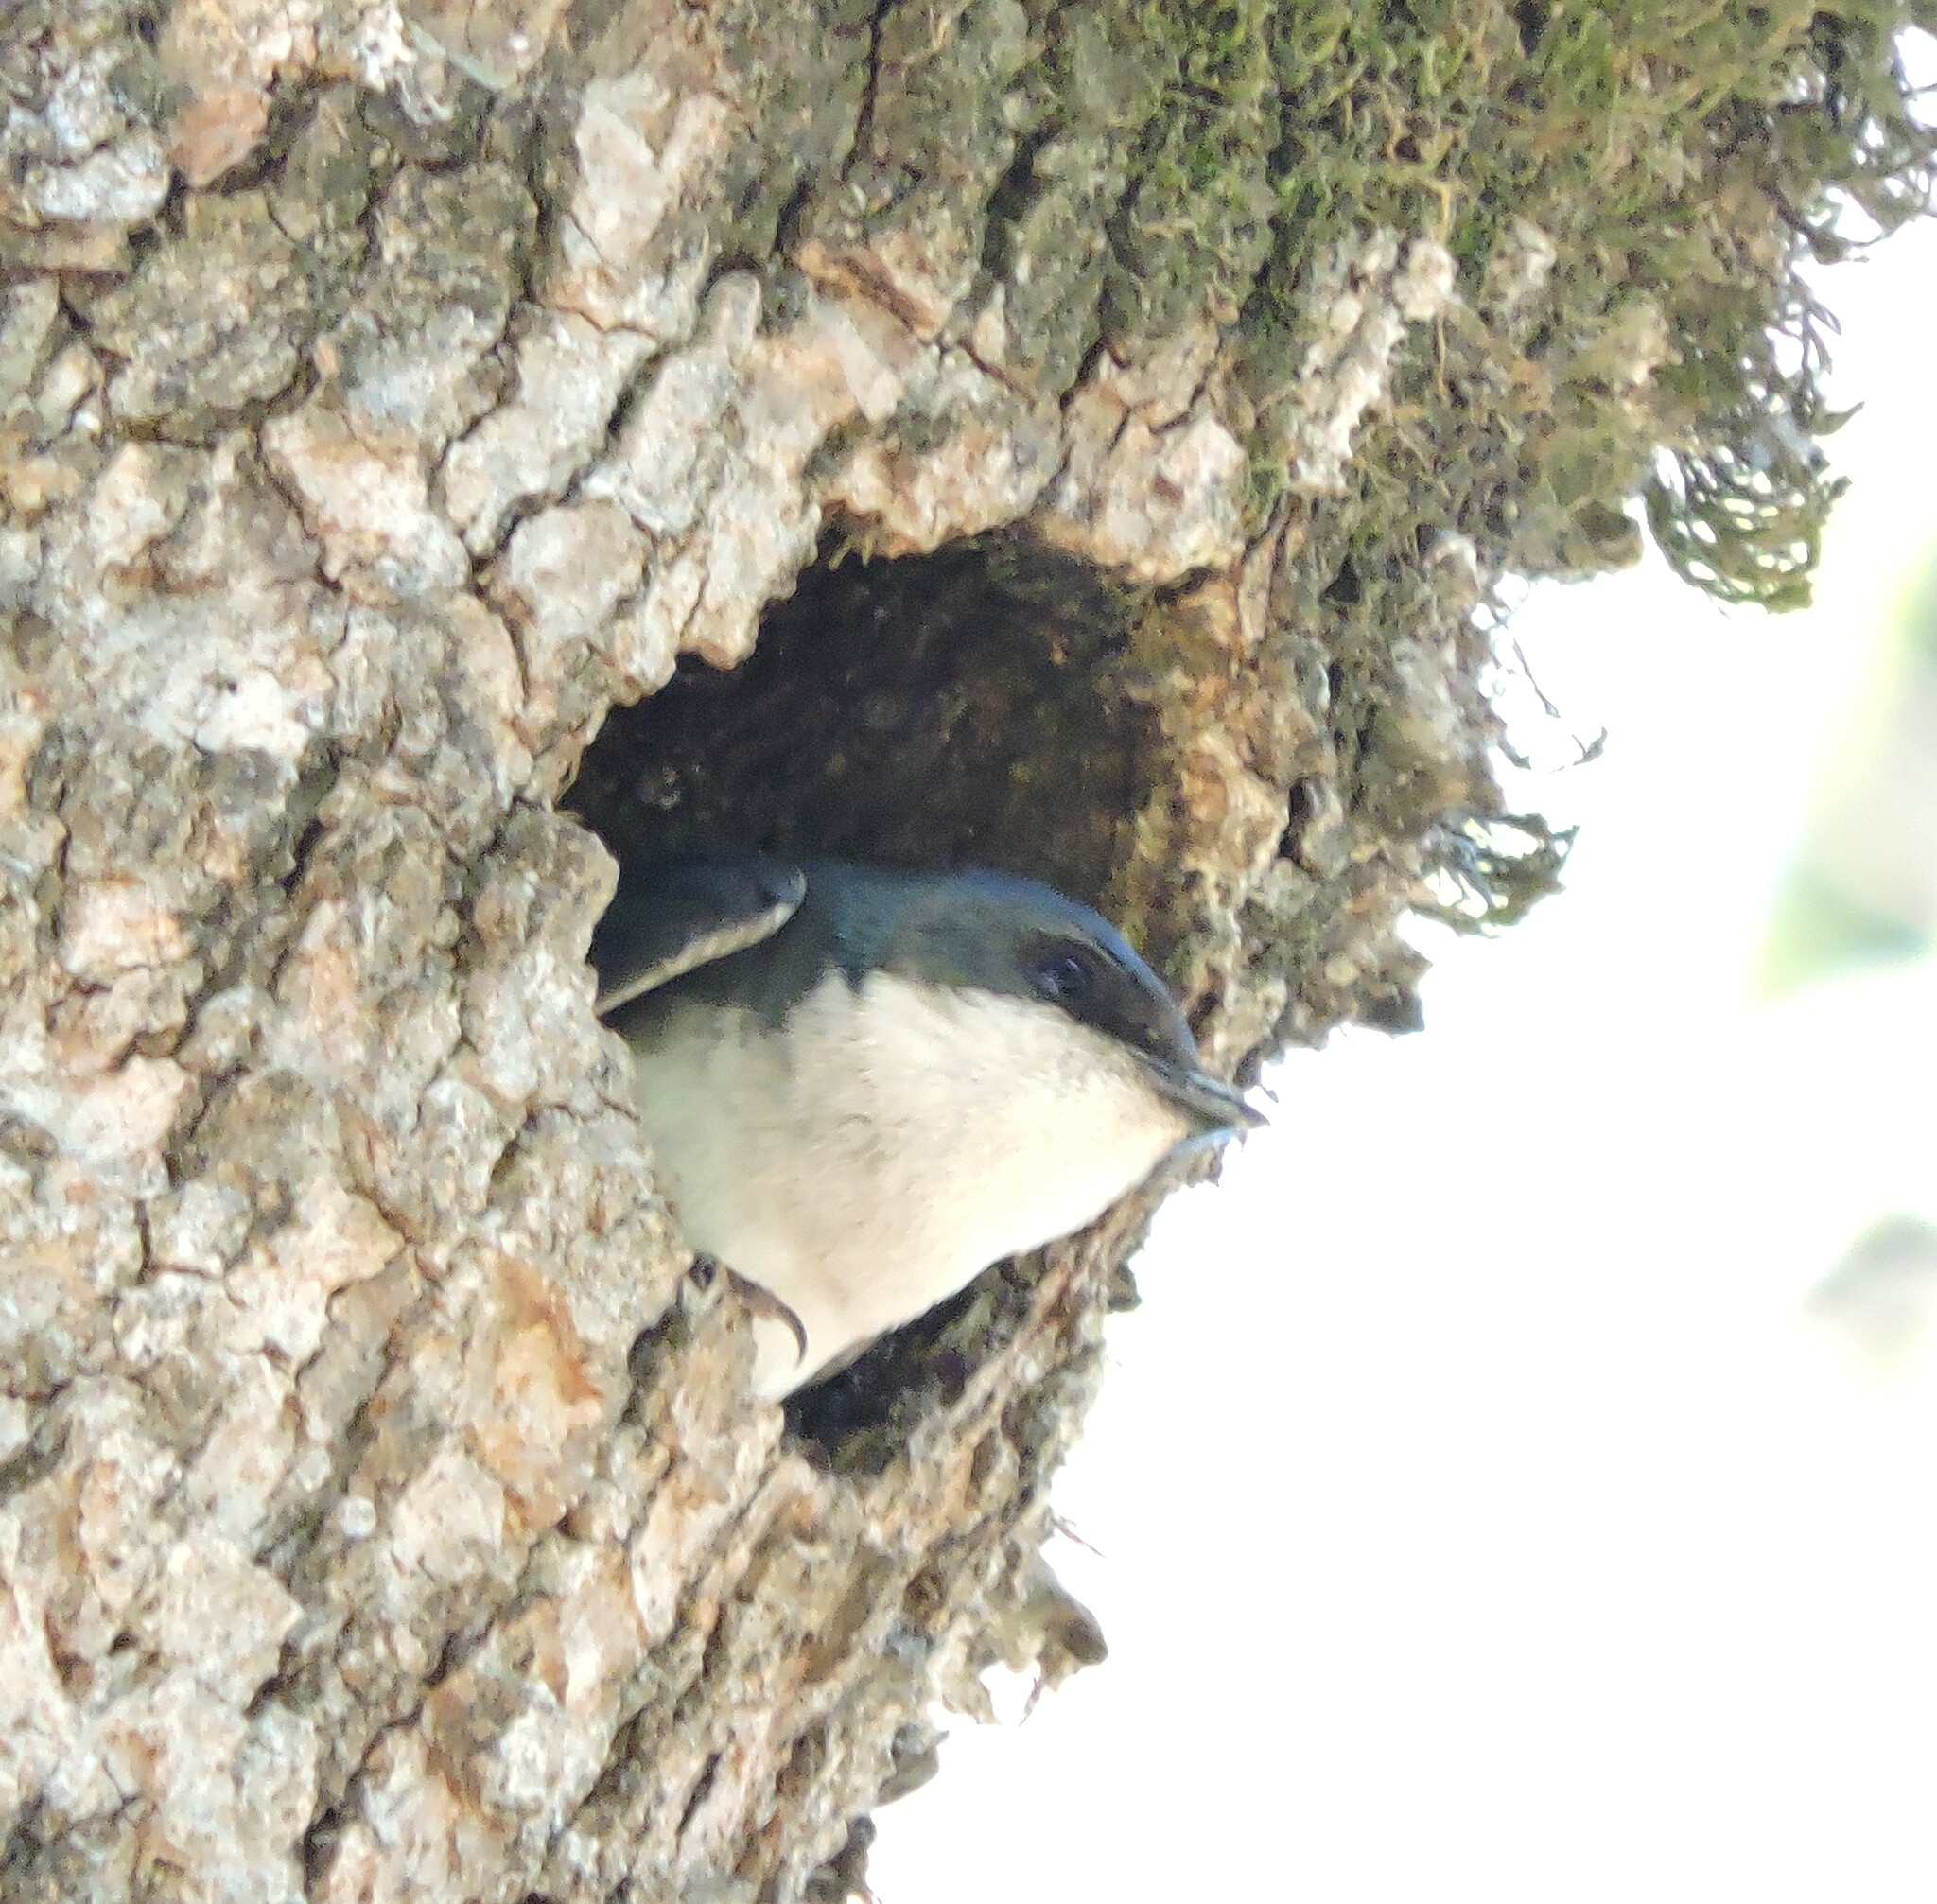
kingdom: Animalia
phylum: Chordata
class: Aves
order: Passeriformes
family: Hirundinidae
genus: Tachycineta
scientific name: Tachycineta bicolor
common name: Tree swallow
